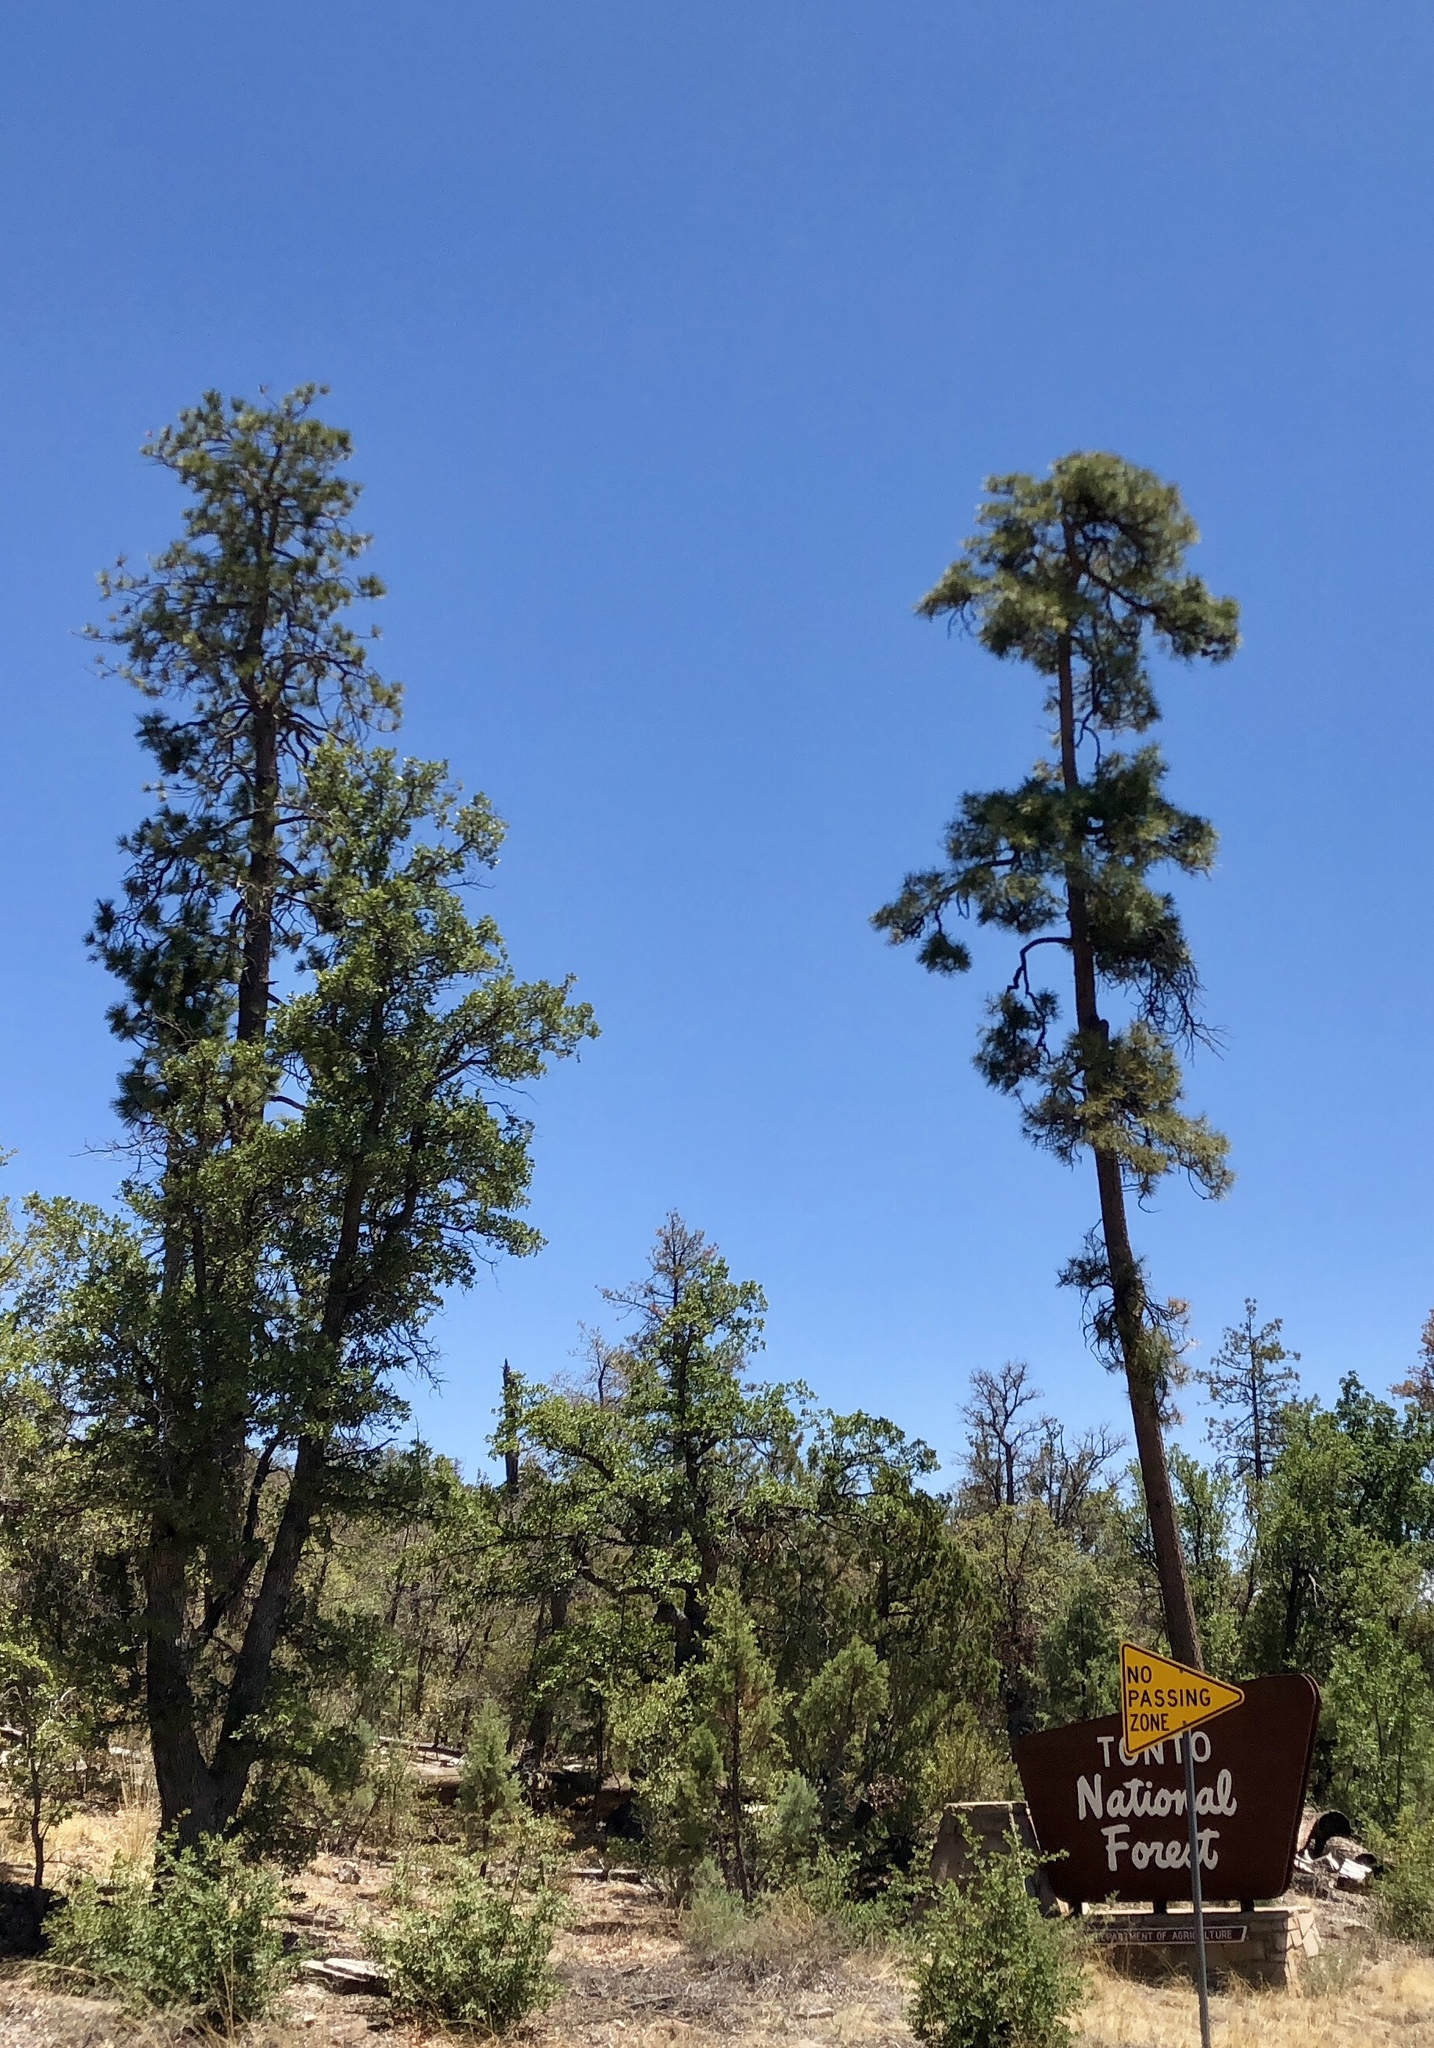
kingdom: Plantae
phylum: Tracheophyta
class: Pinopsida
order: Pinales
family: Pinaceae
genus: Pinus
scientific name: Pinus ponderosa
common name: Western yellow-pine
